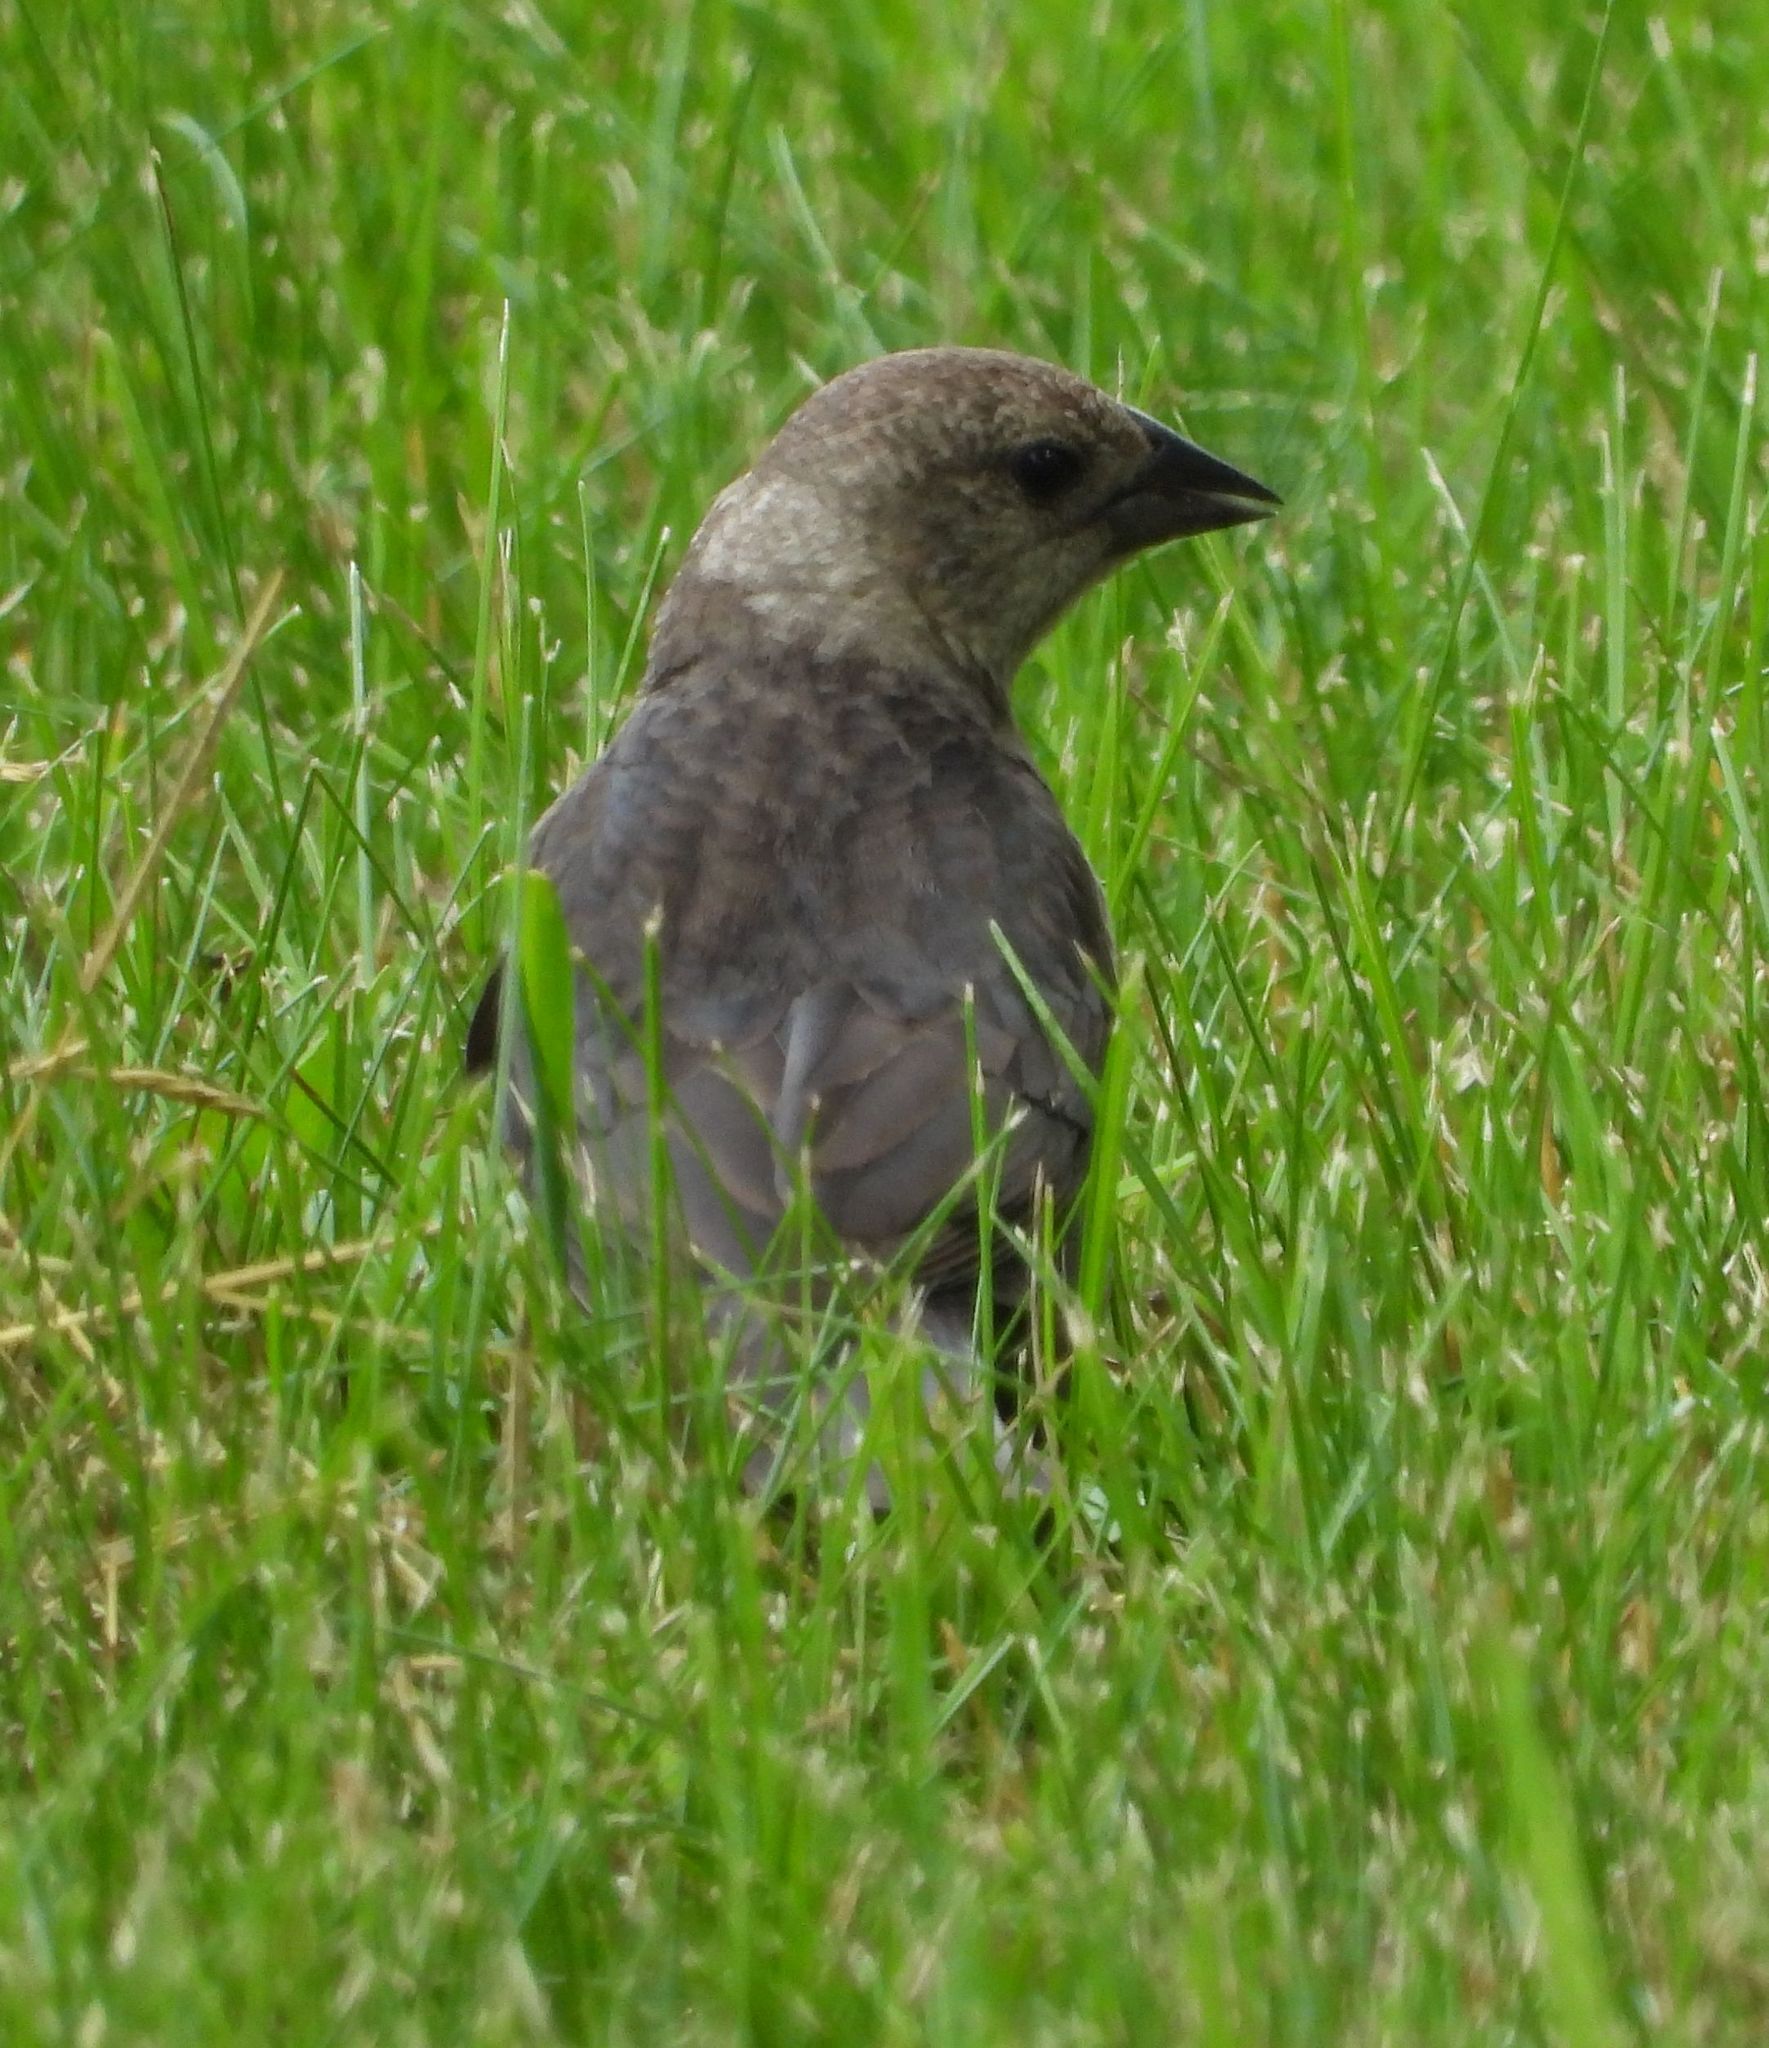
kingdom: Animalia
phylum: Chordata
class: Aves
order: Passeriformes
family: Icteridae
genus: Molothrus
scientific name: Molothrus ater
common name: Brown-headed cowbird
